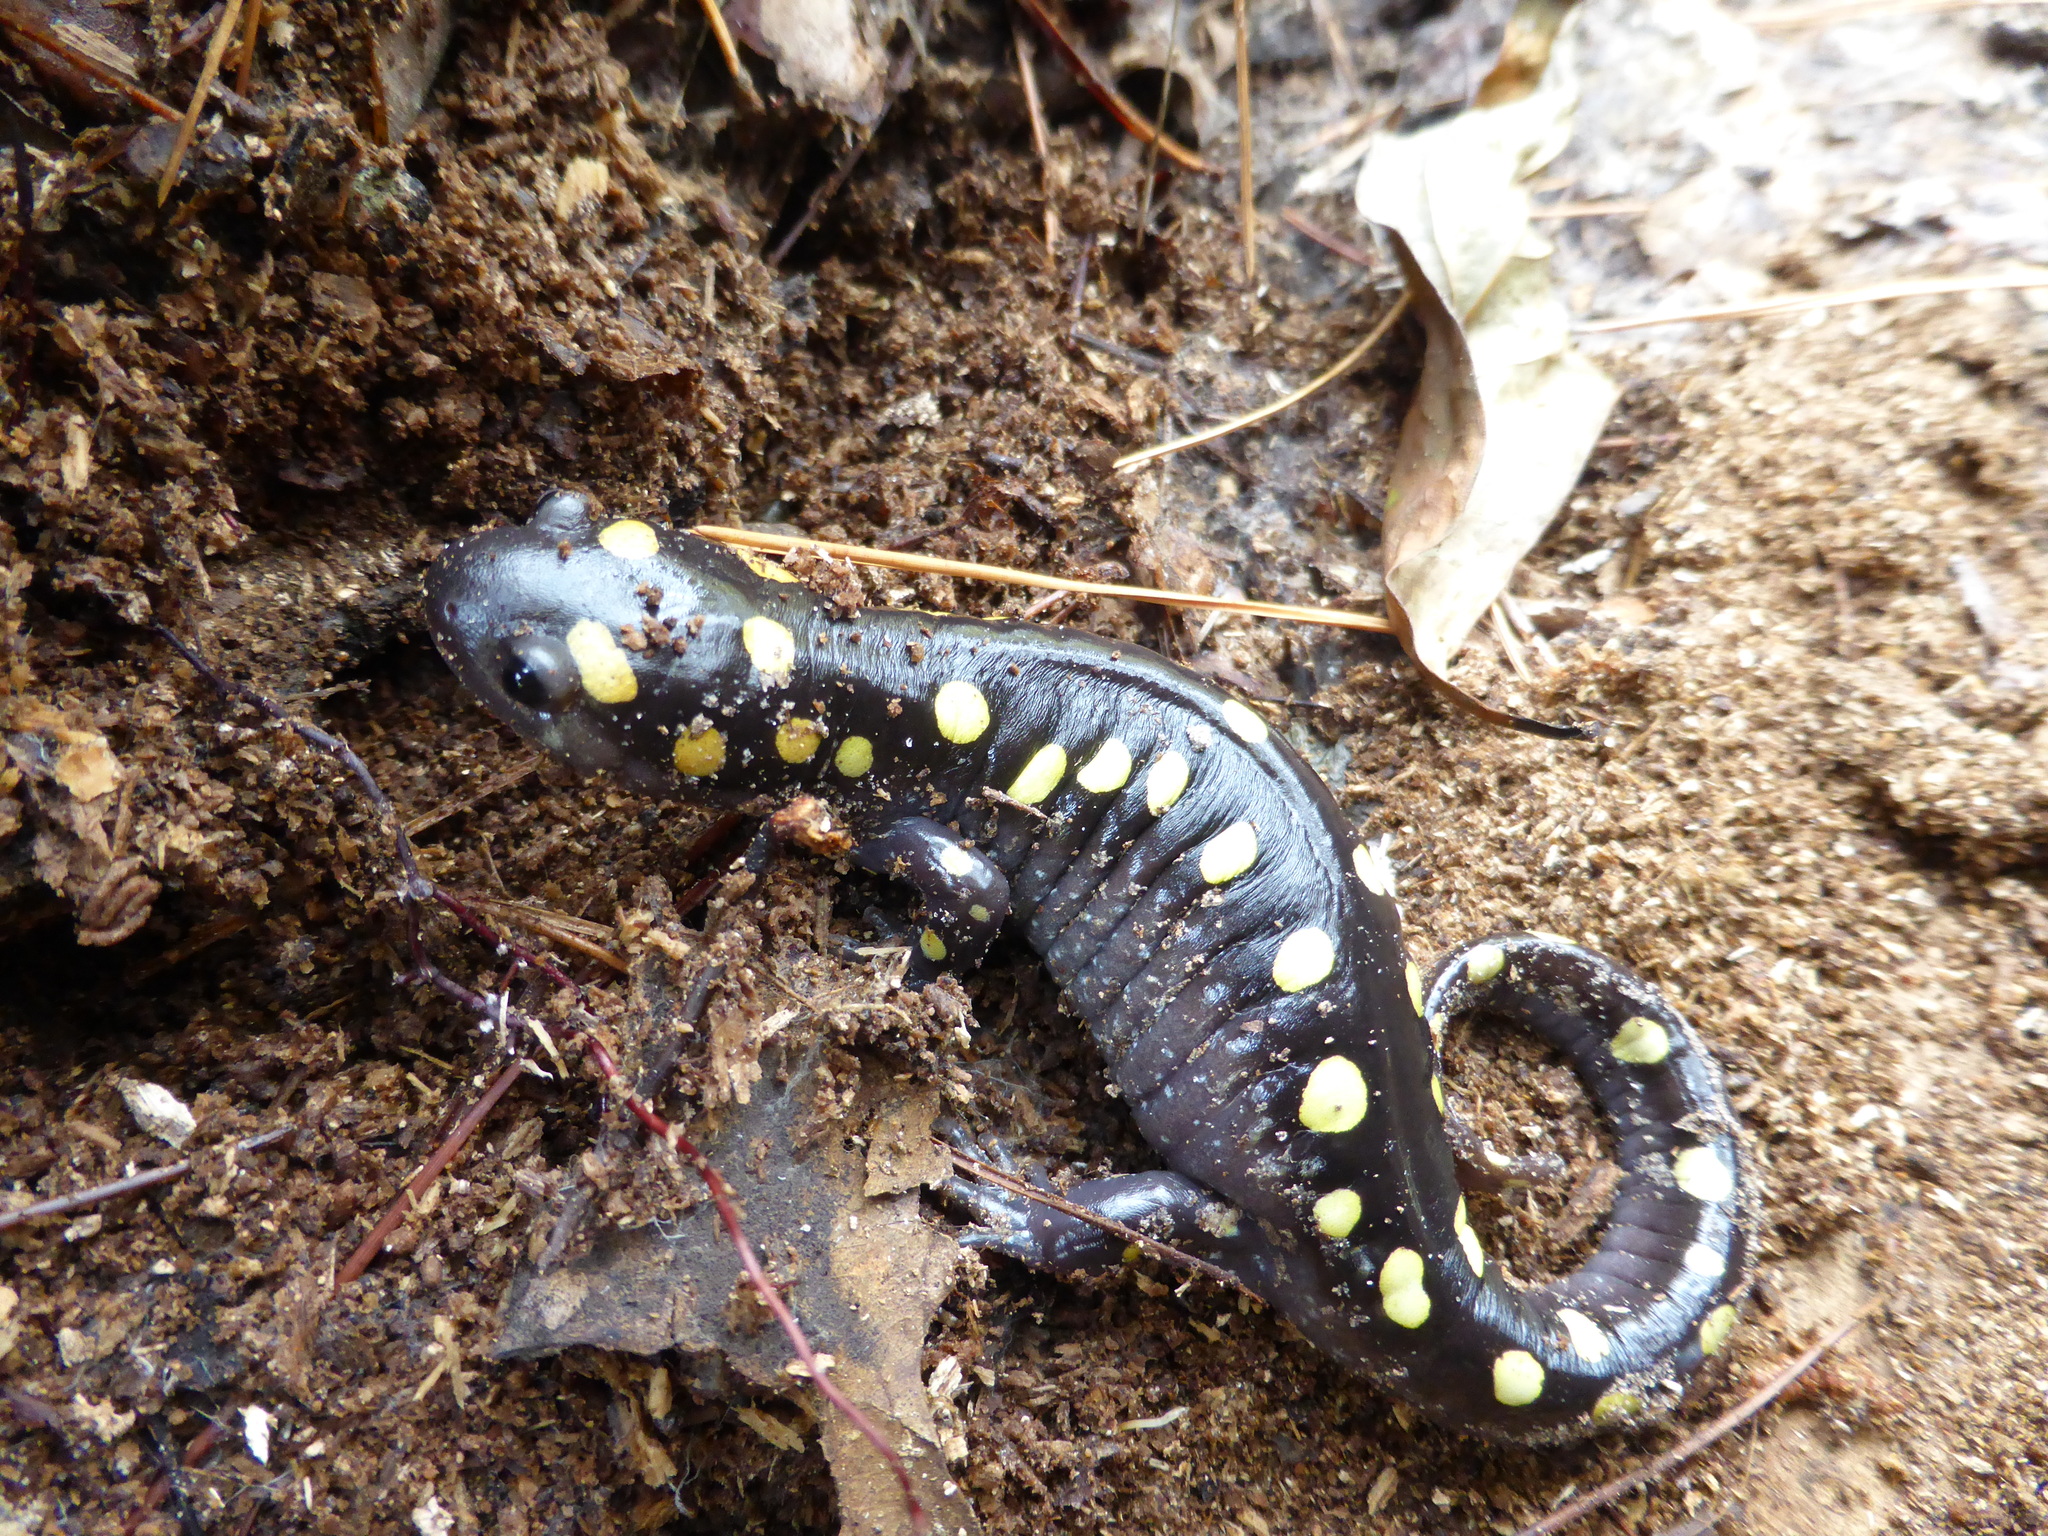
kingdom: Animalia
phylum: Chordata
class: Amphibia
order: Caudata
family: Ambystomatidae
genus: Ambystoma
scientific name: Ambystoma maculatum
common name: Spotted salamander
